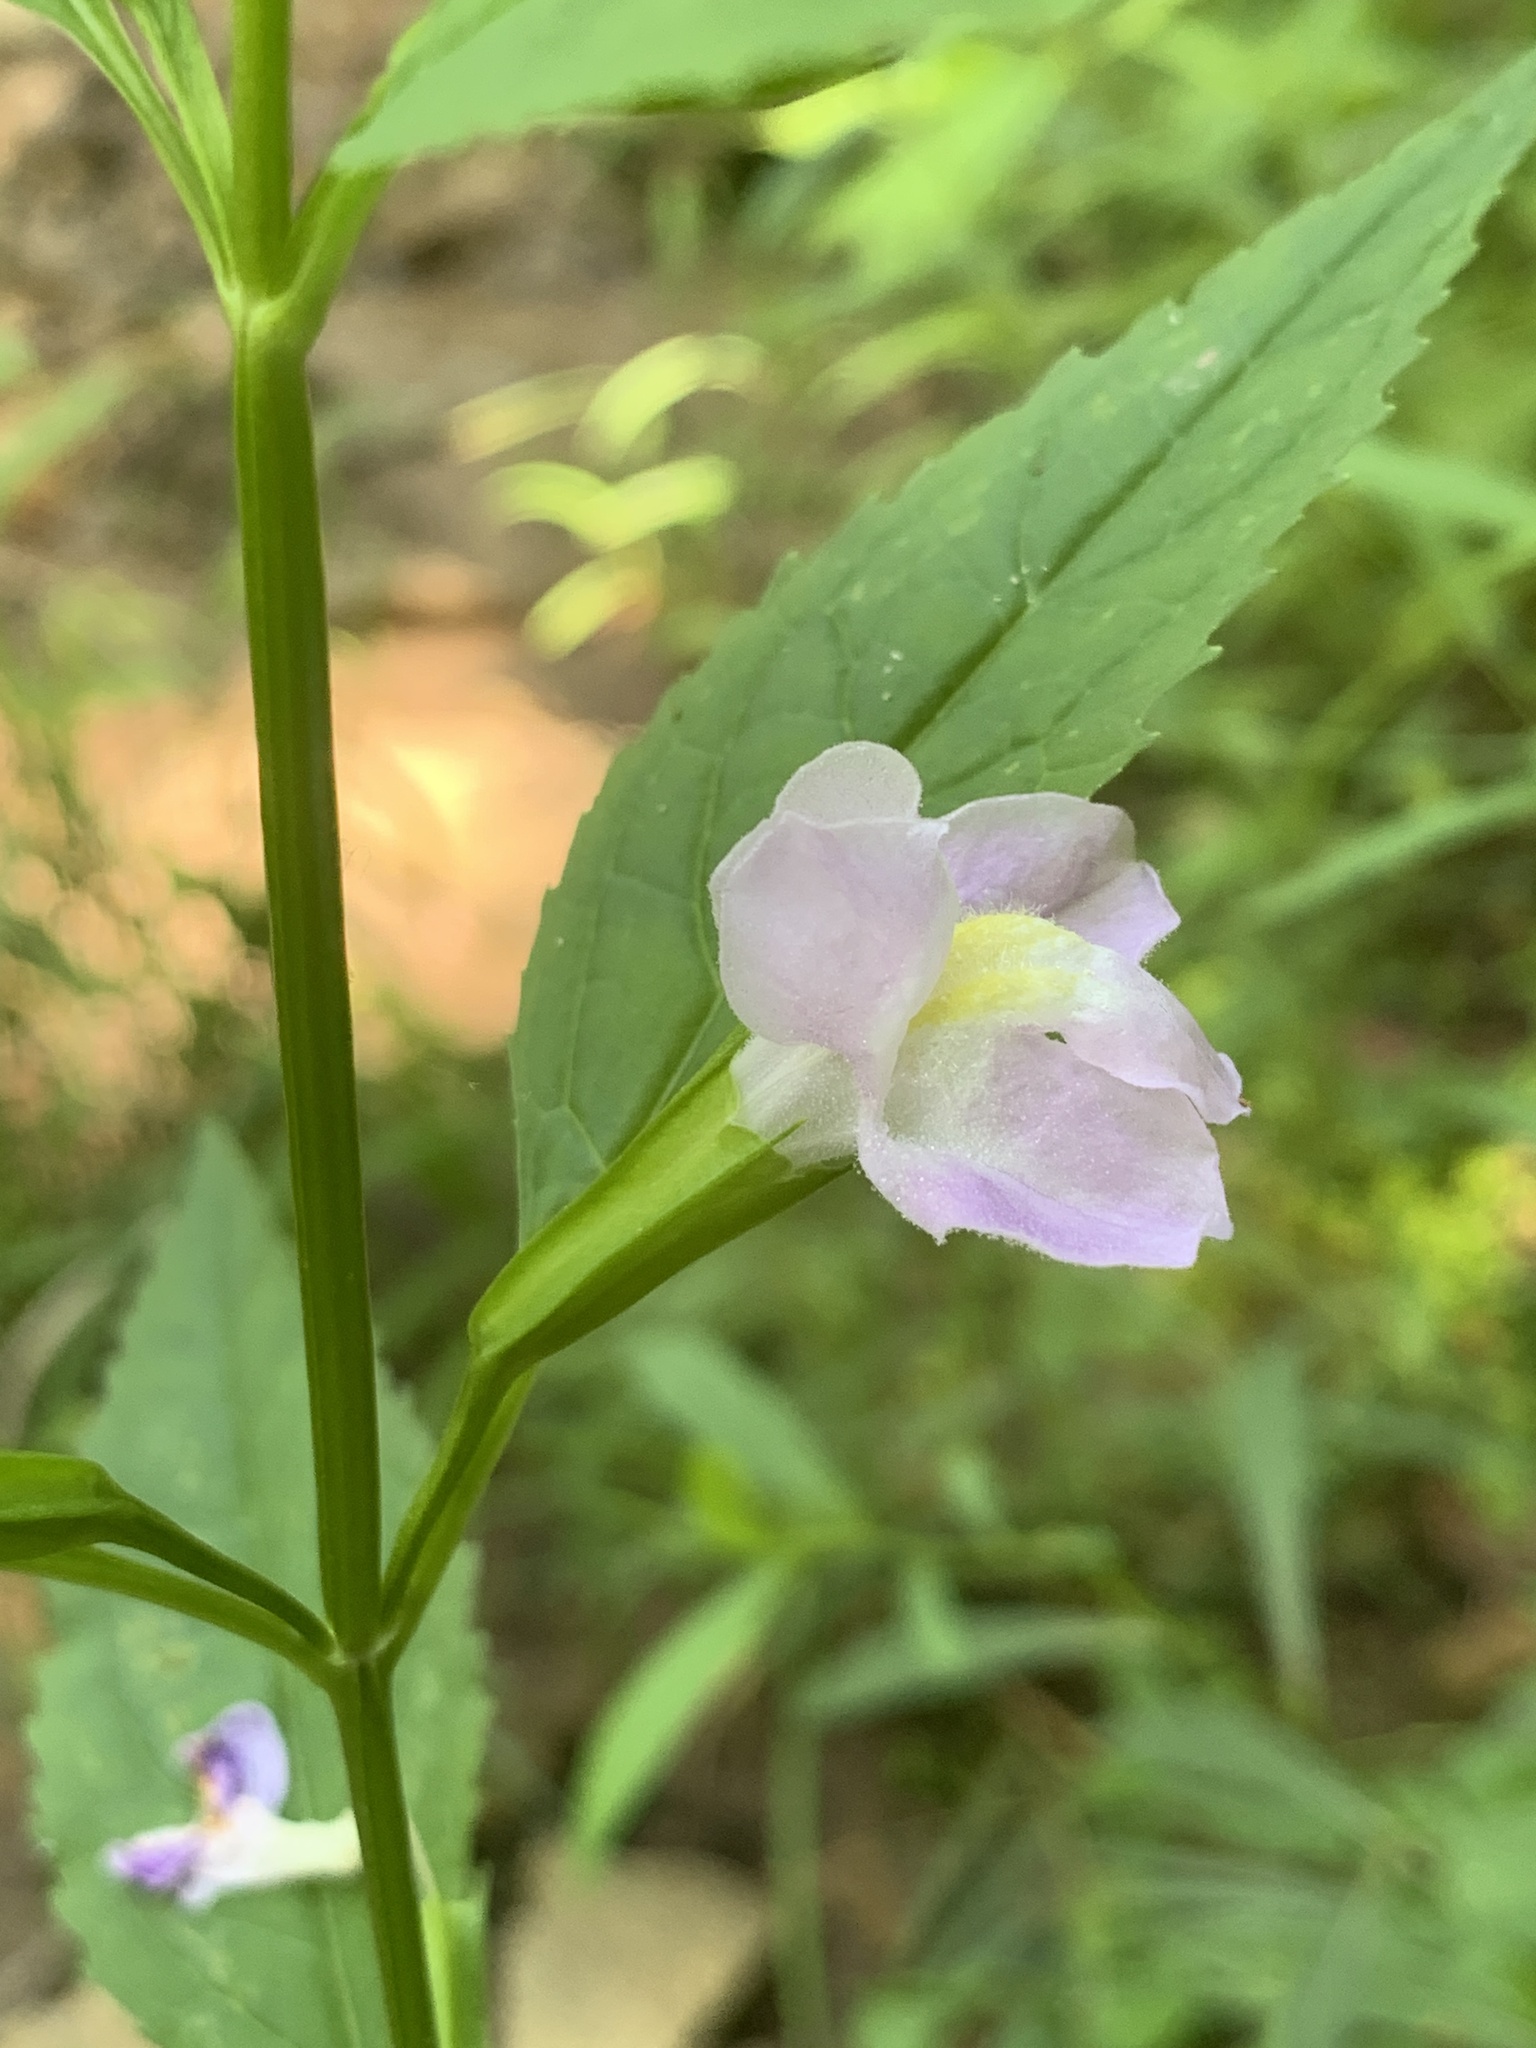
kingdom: Plantae
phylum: Tracheophyta
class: Magnoliopsida
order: Lamiales
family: Phrymaceae
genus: Mimulus
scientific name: Mimulus alatus
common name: Sharp-wing monkey-flower
